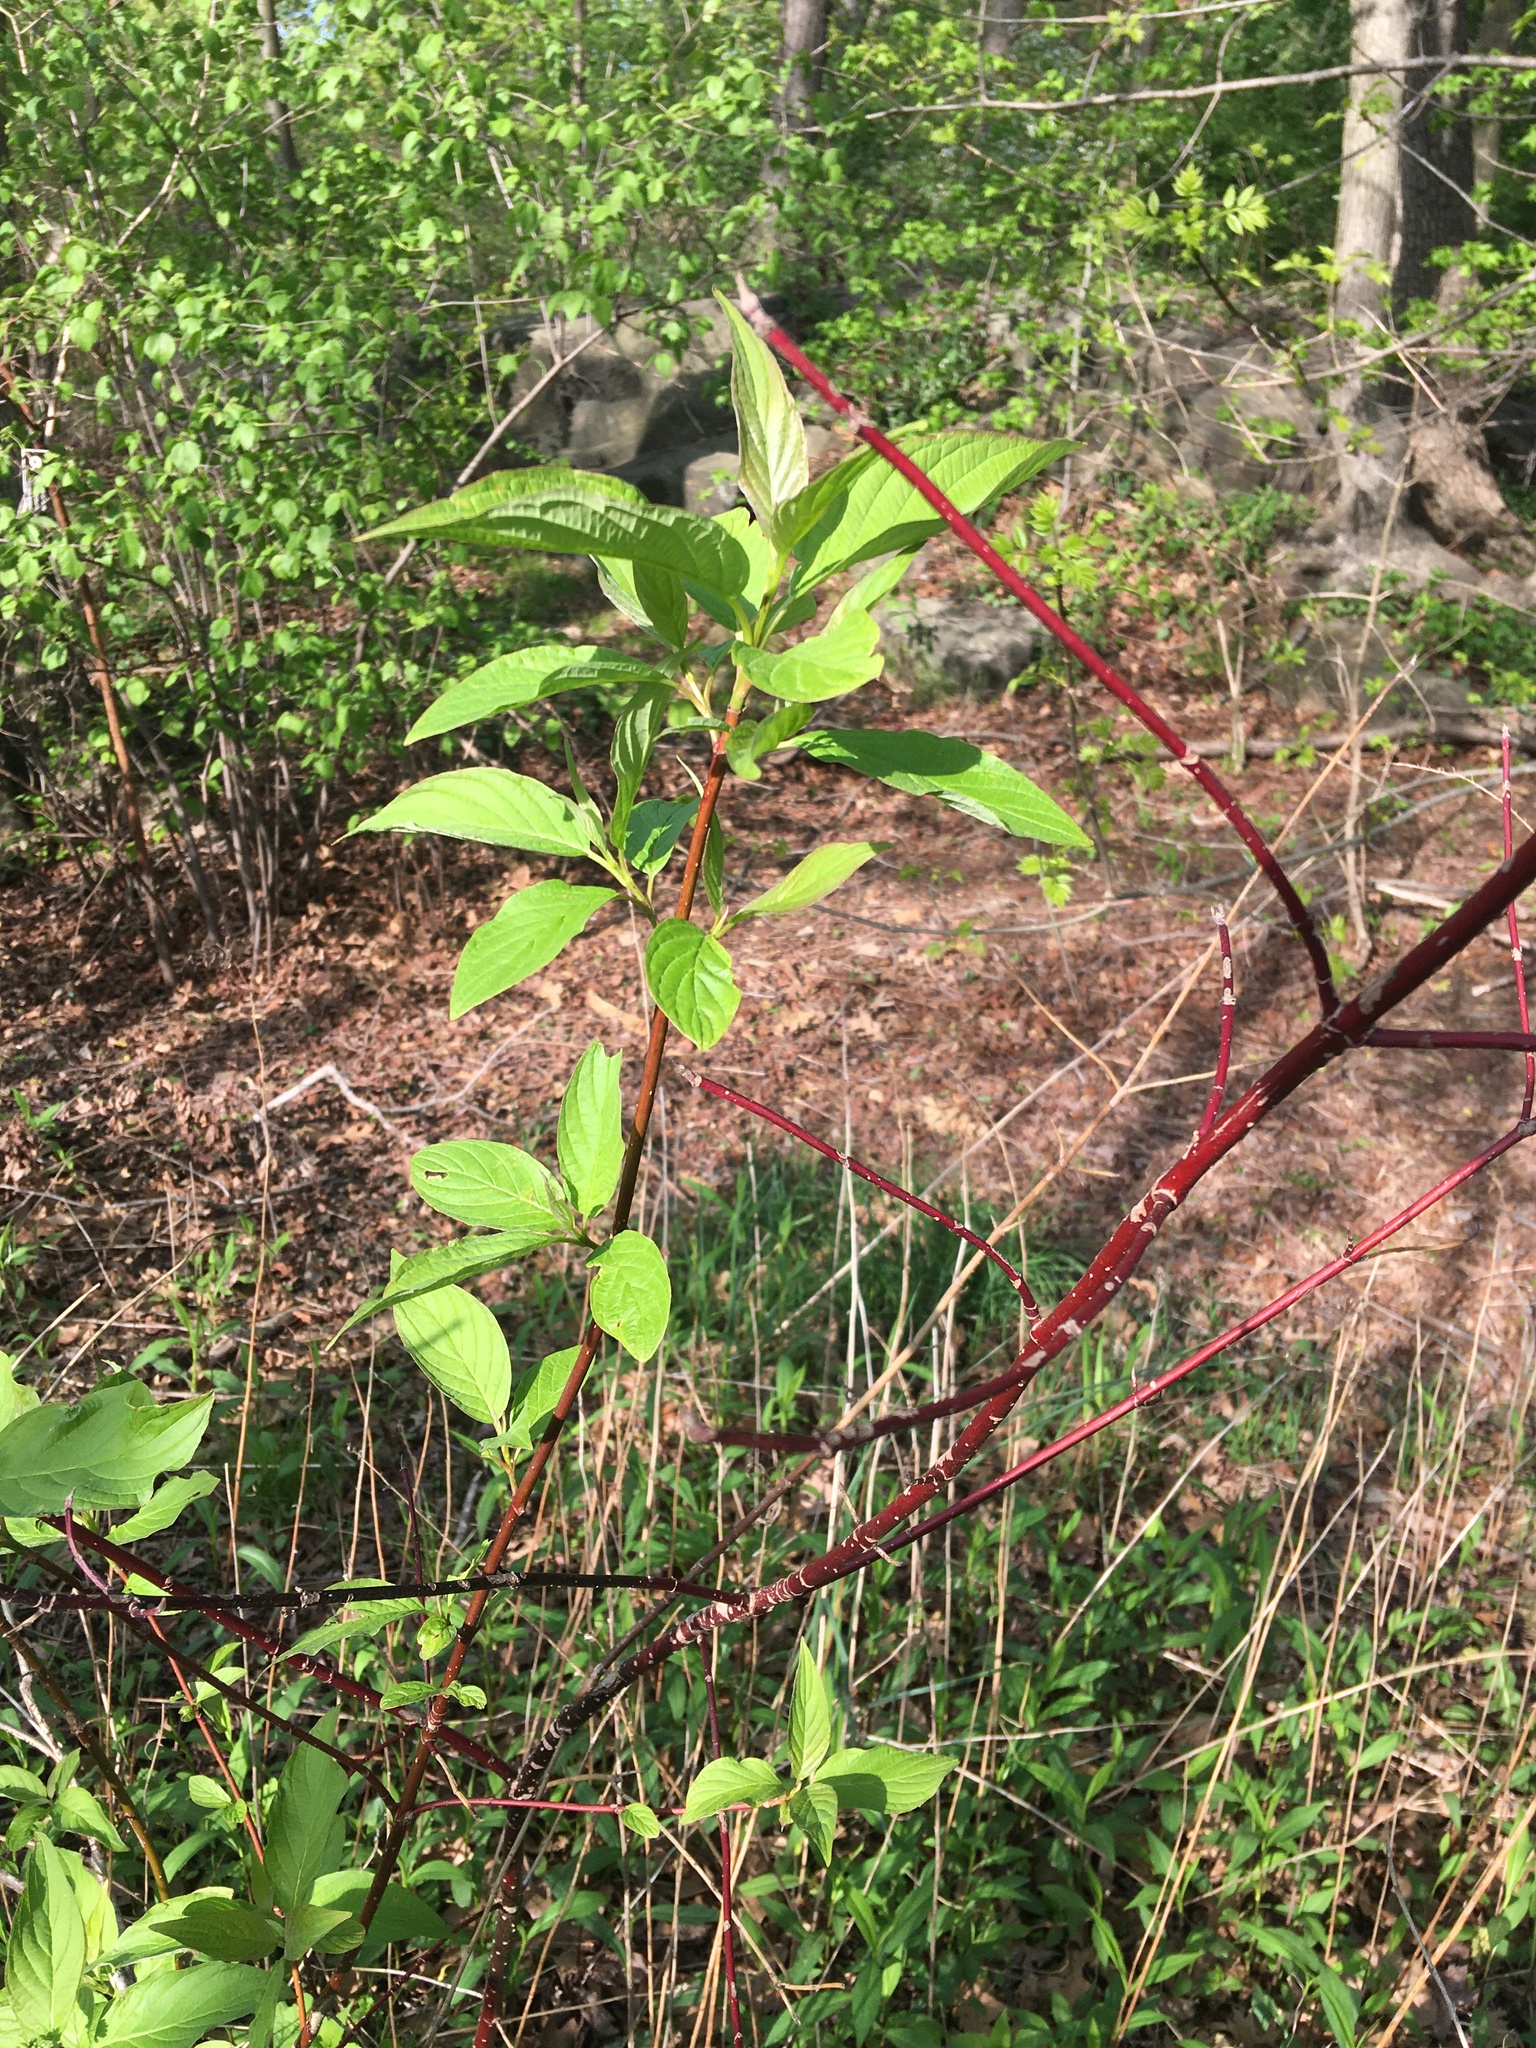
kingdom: Plantae
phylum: Tracheophyta
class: Magnoliopsida
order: Cornales
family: Cornaceae
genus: Cornus
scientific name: Cornus sericea
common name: Red-osier dogwood
